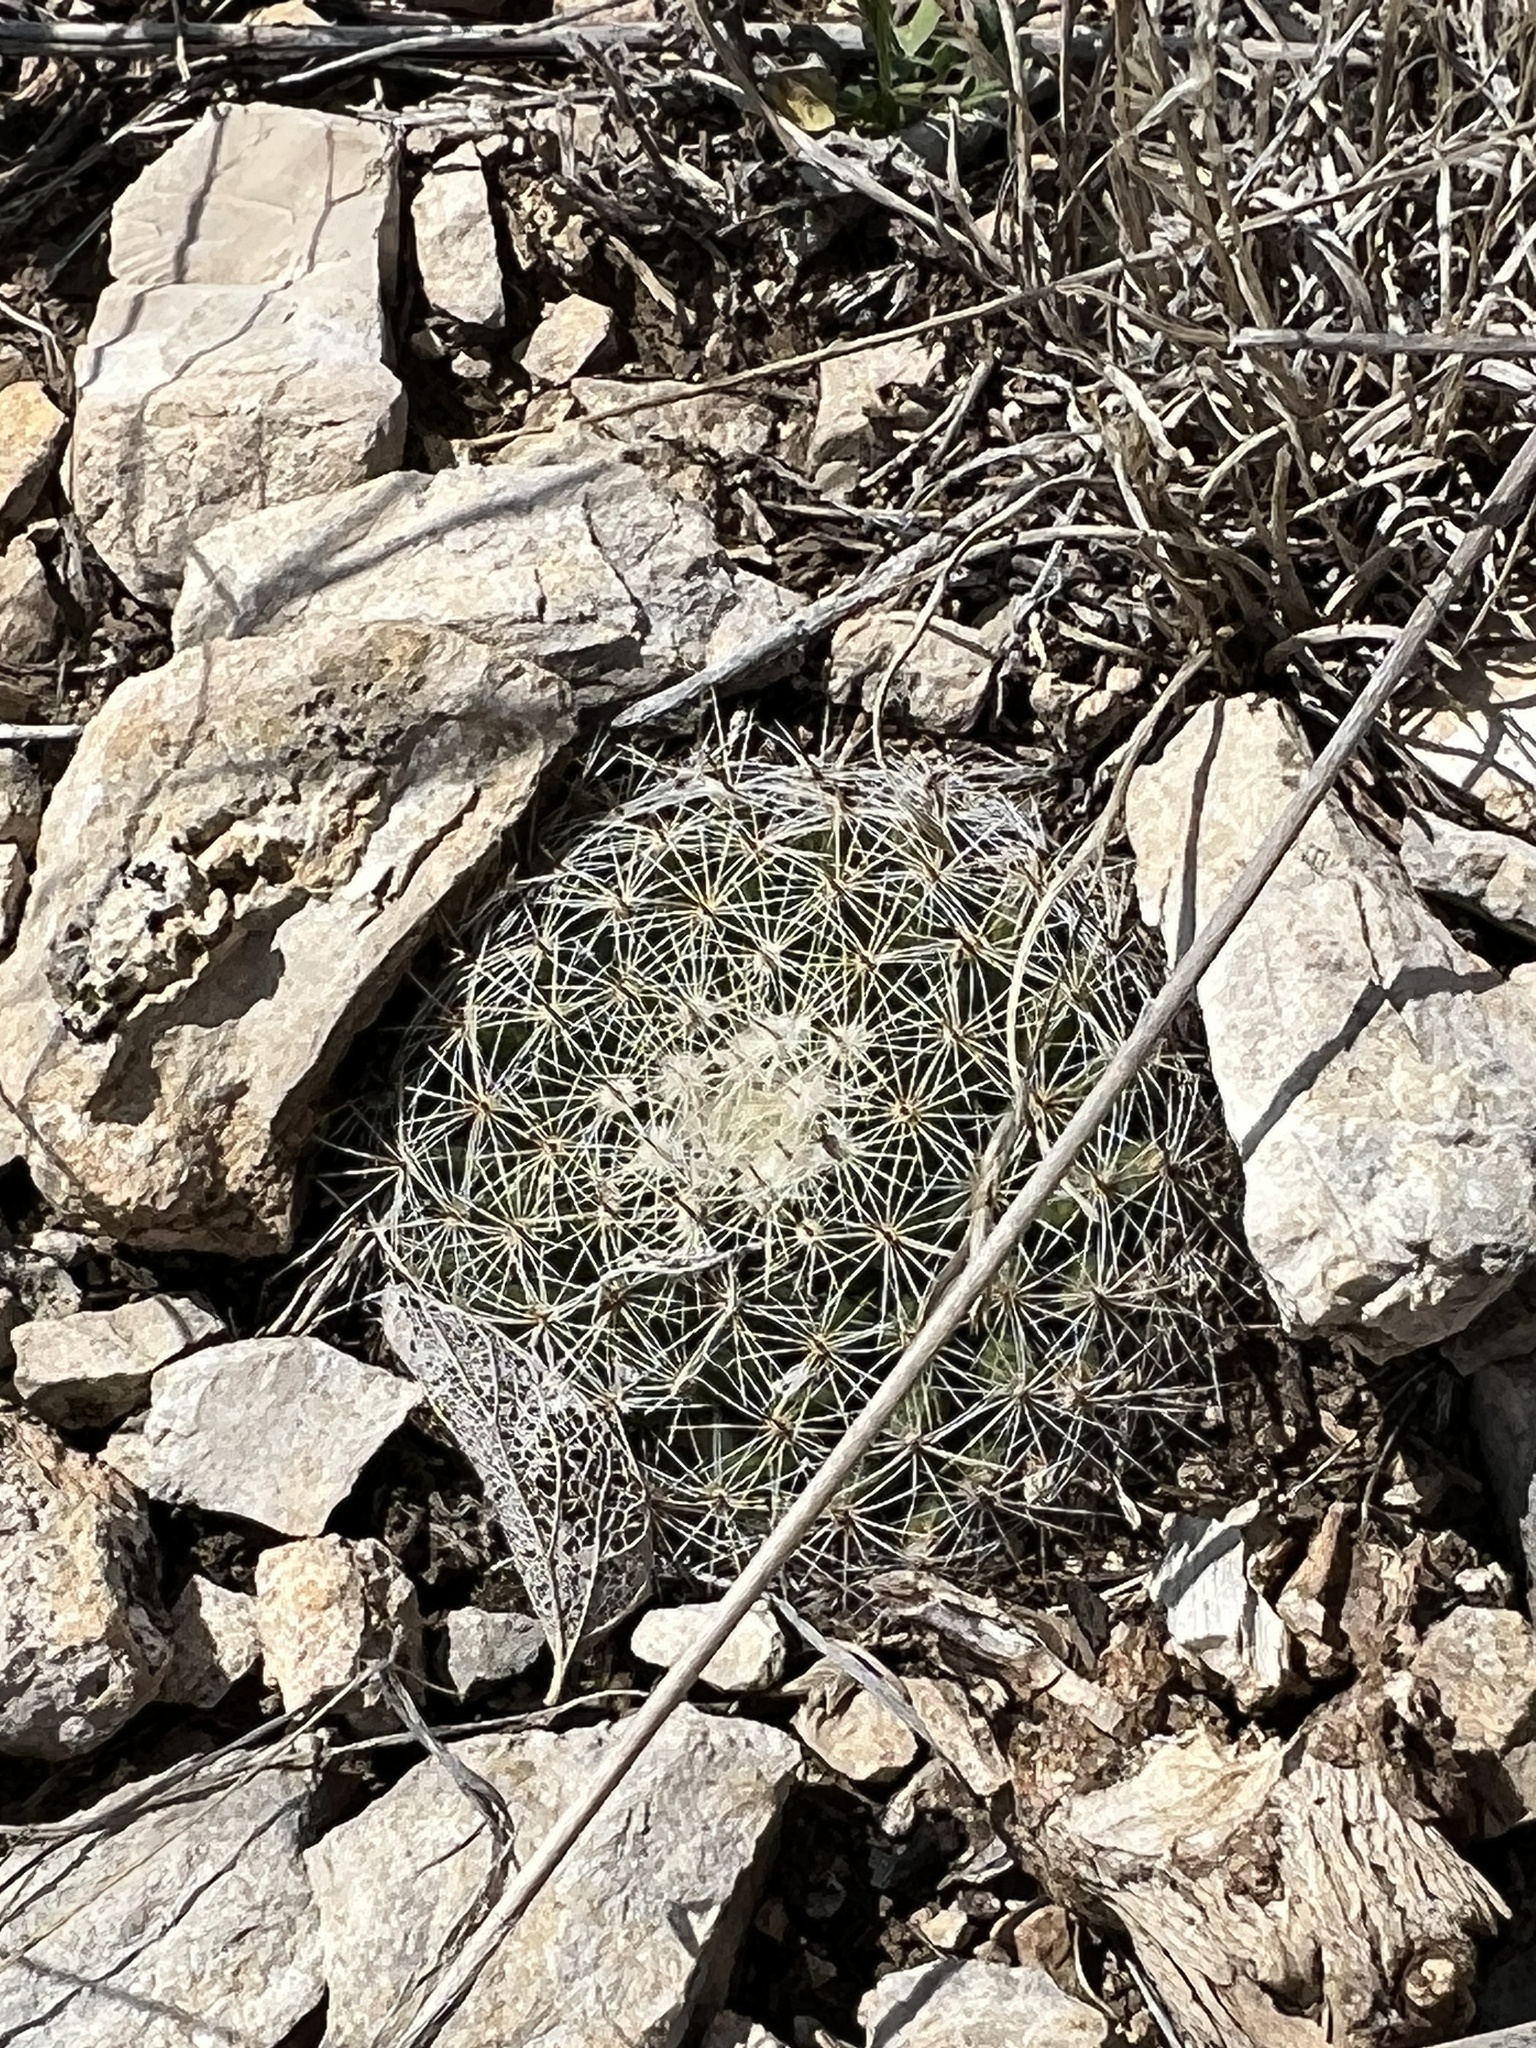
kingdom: Plantae
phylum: Tracheophyta
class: Magnoliopsida
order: Caryophyllales
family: Cactaceae
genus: Mammillaria
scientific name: Mammillaria heyderi
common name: Little nipple cactus
